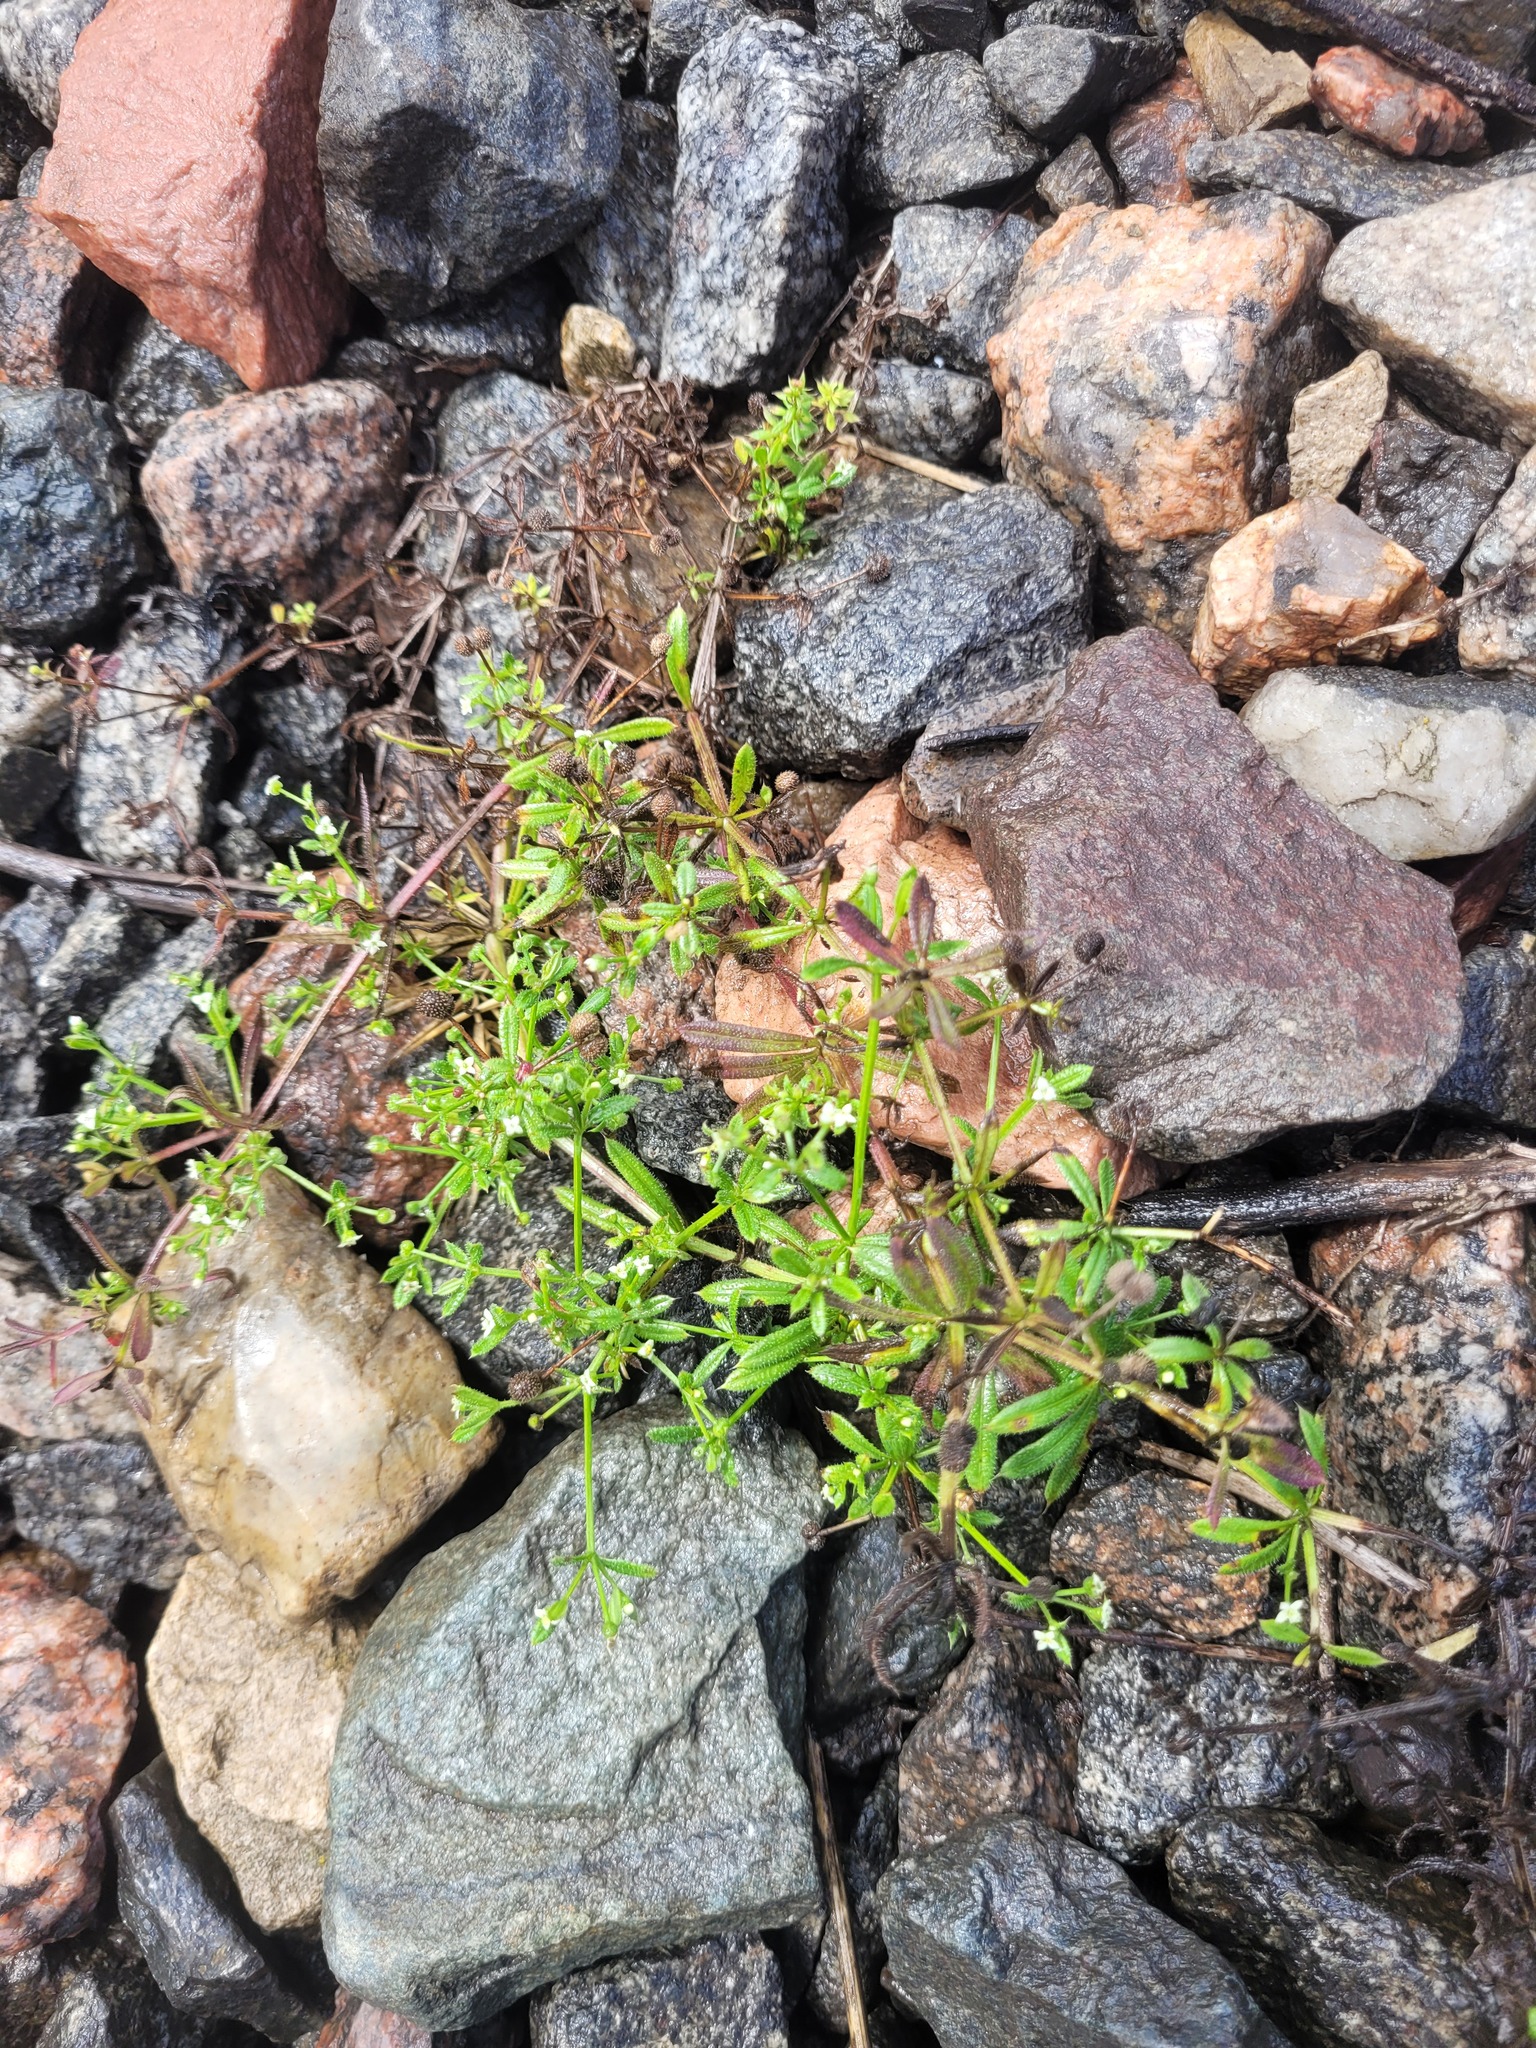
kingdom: Plantae
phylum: Tracheophyta
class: Magnoliopsida
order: Gentianales
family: Rubiaceae
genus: Galium
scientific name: Galium aparine
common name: Cleavers
